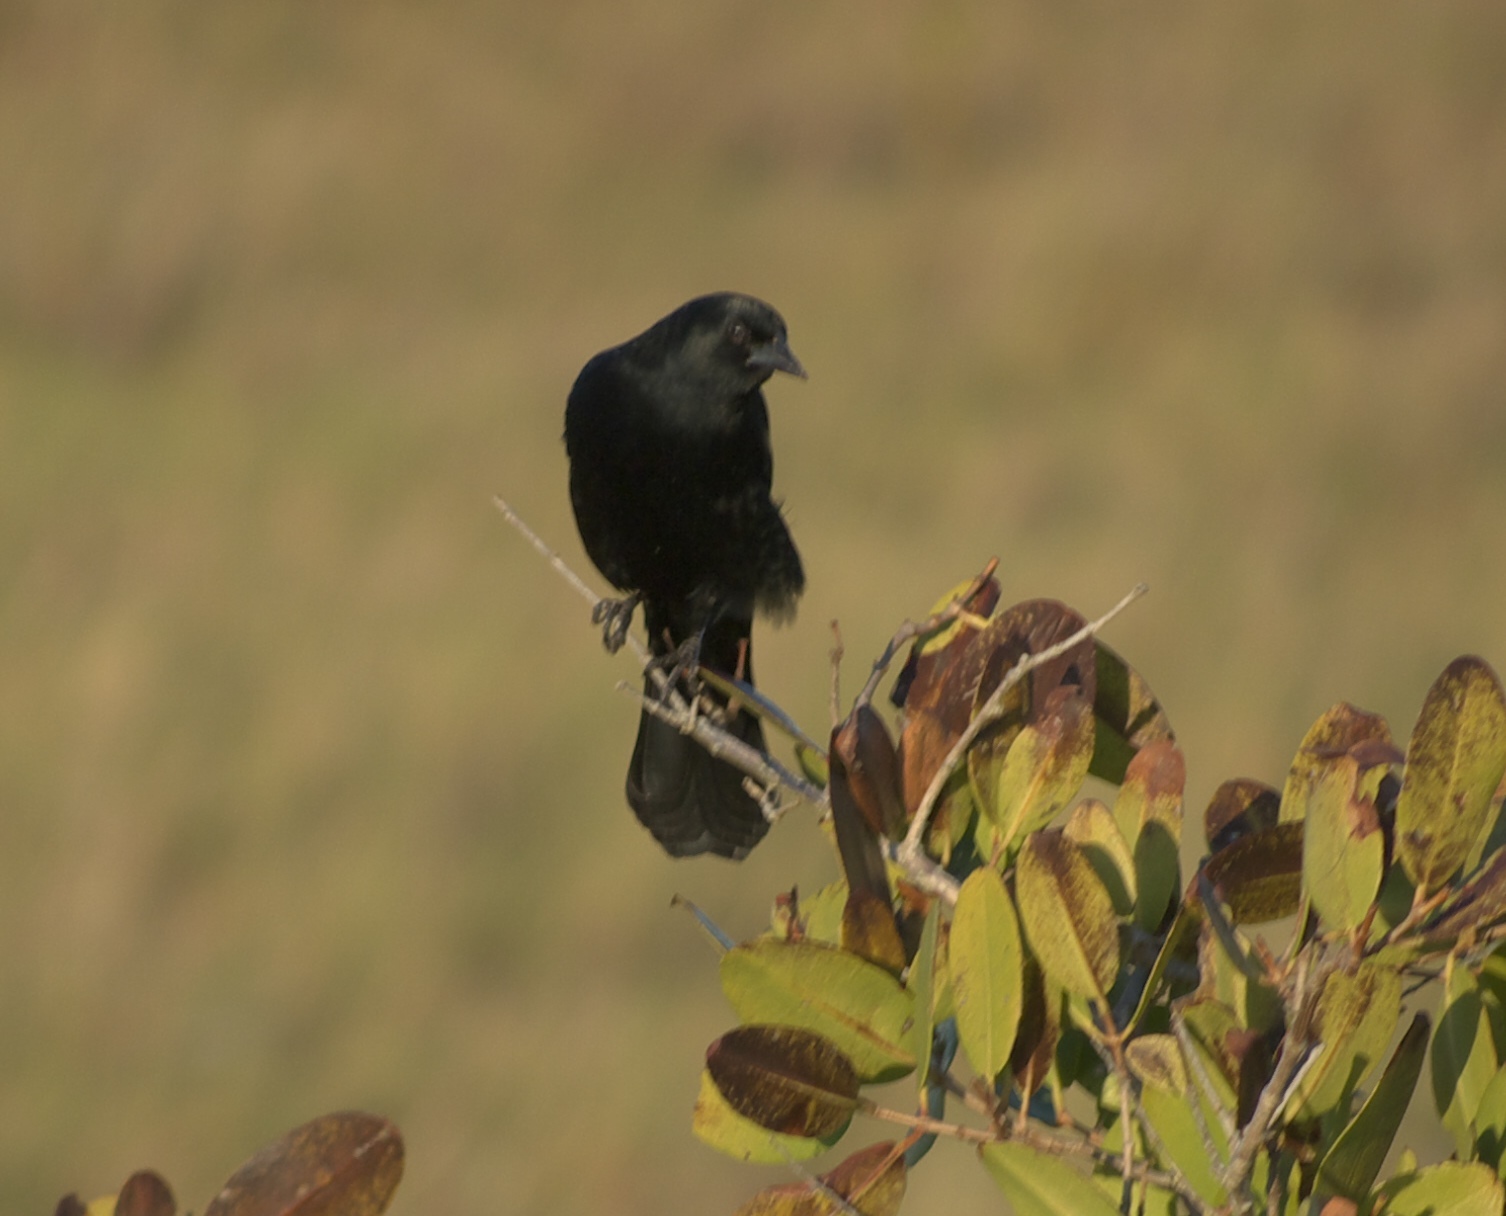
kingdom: Animalia
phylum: Chordata
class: Aves
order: Passeriformes
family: Icteridae
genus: Quiscalus
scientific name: Quiscalus major
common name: Boat-tailed grackle
